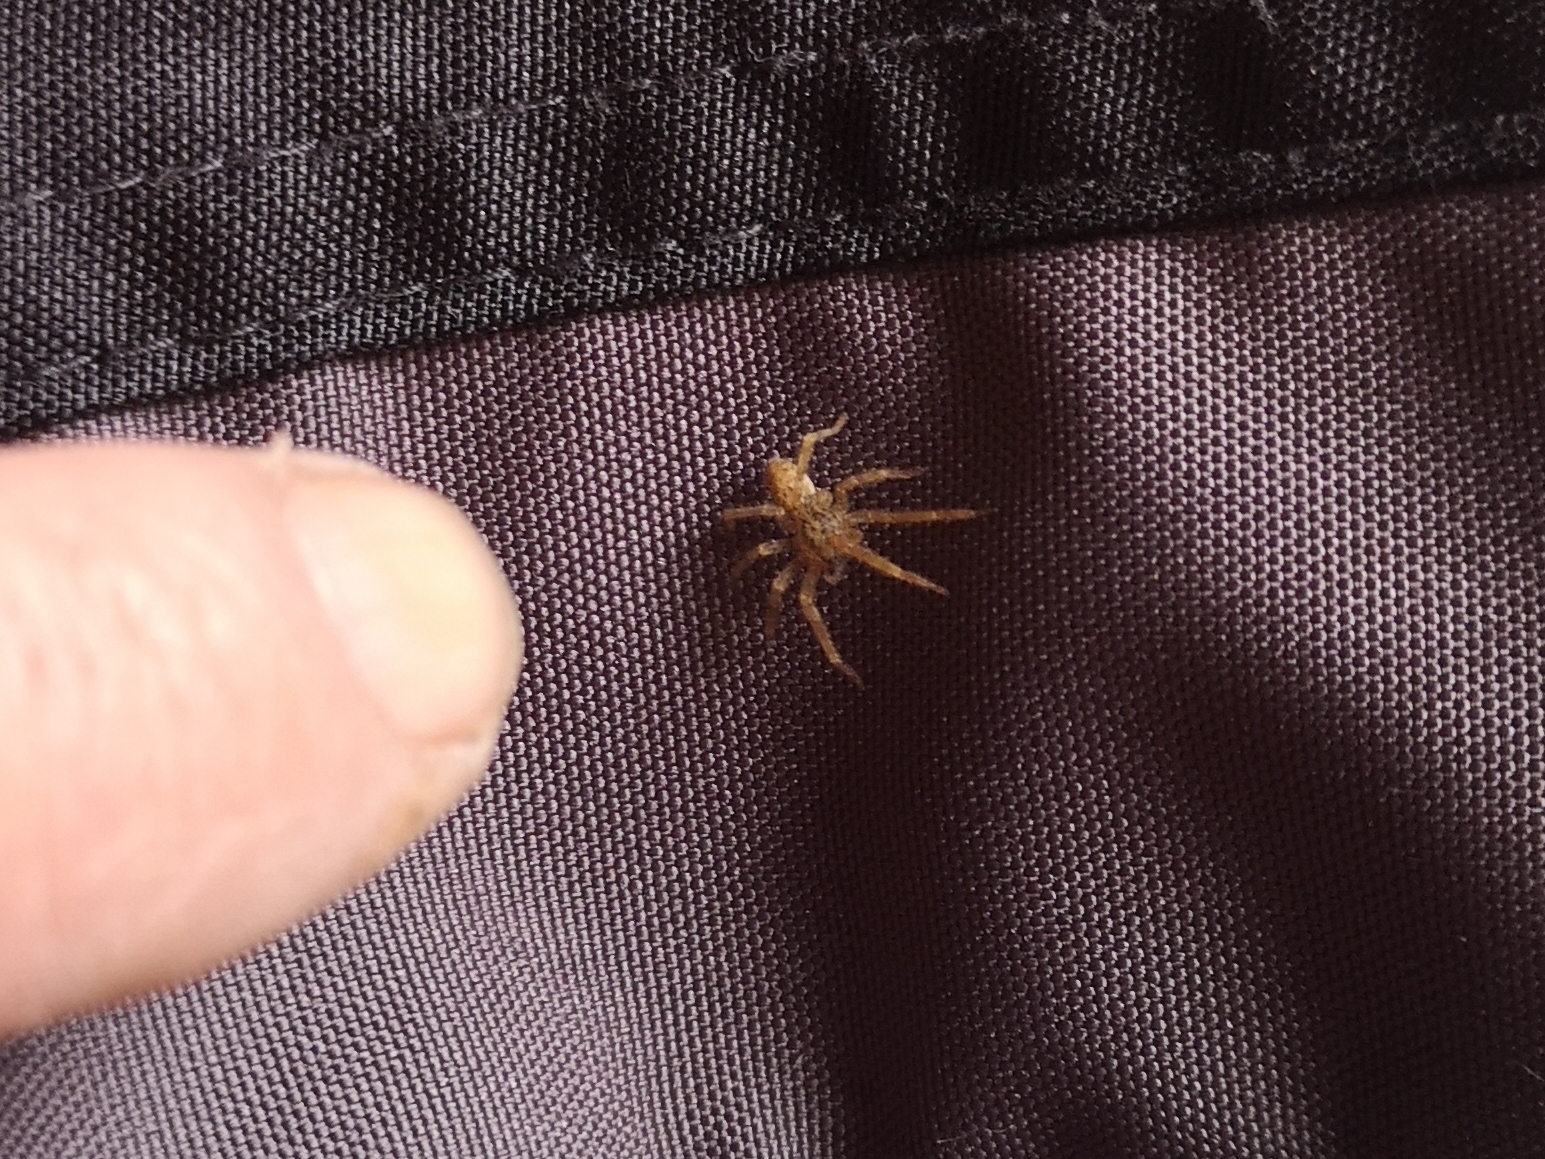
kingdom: Animalia
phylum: Arthropoda
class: Arachnida
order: Araneae
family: Zoropsidae
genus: Zoropsis
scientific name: Zoropsis spinimana
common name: Zoropsid spider
